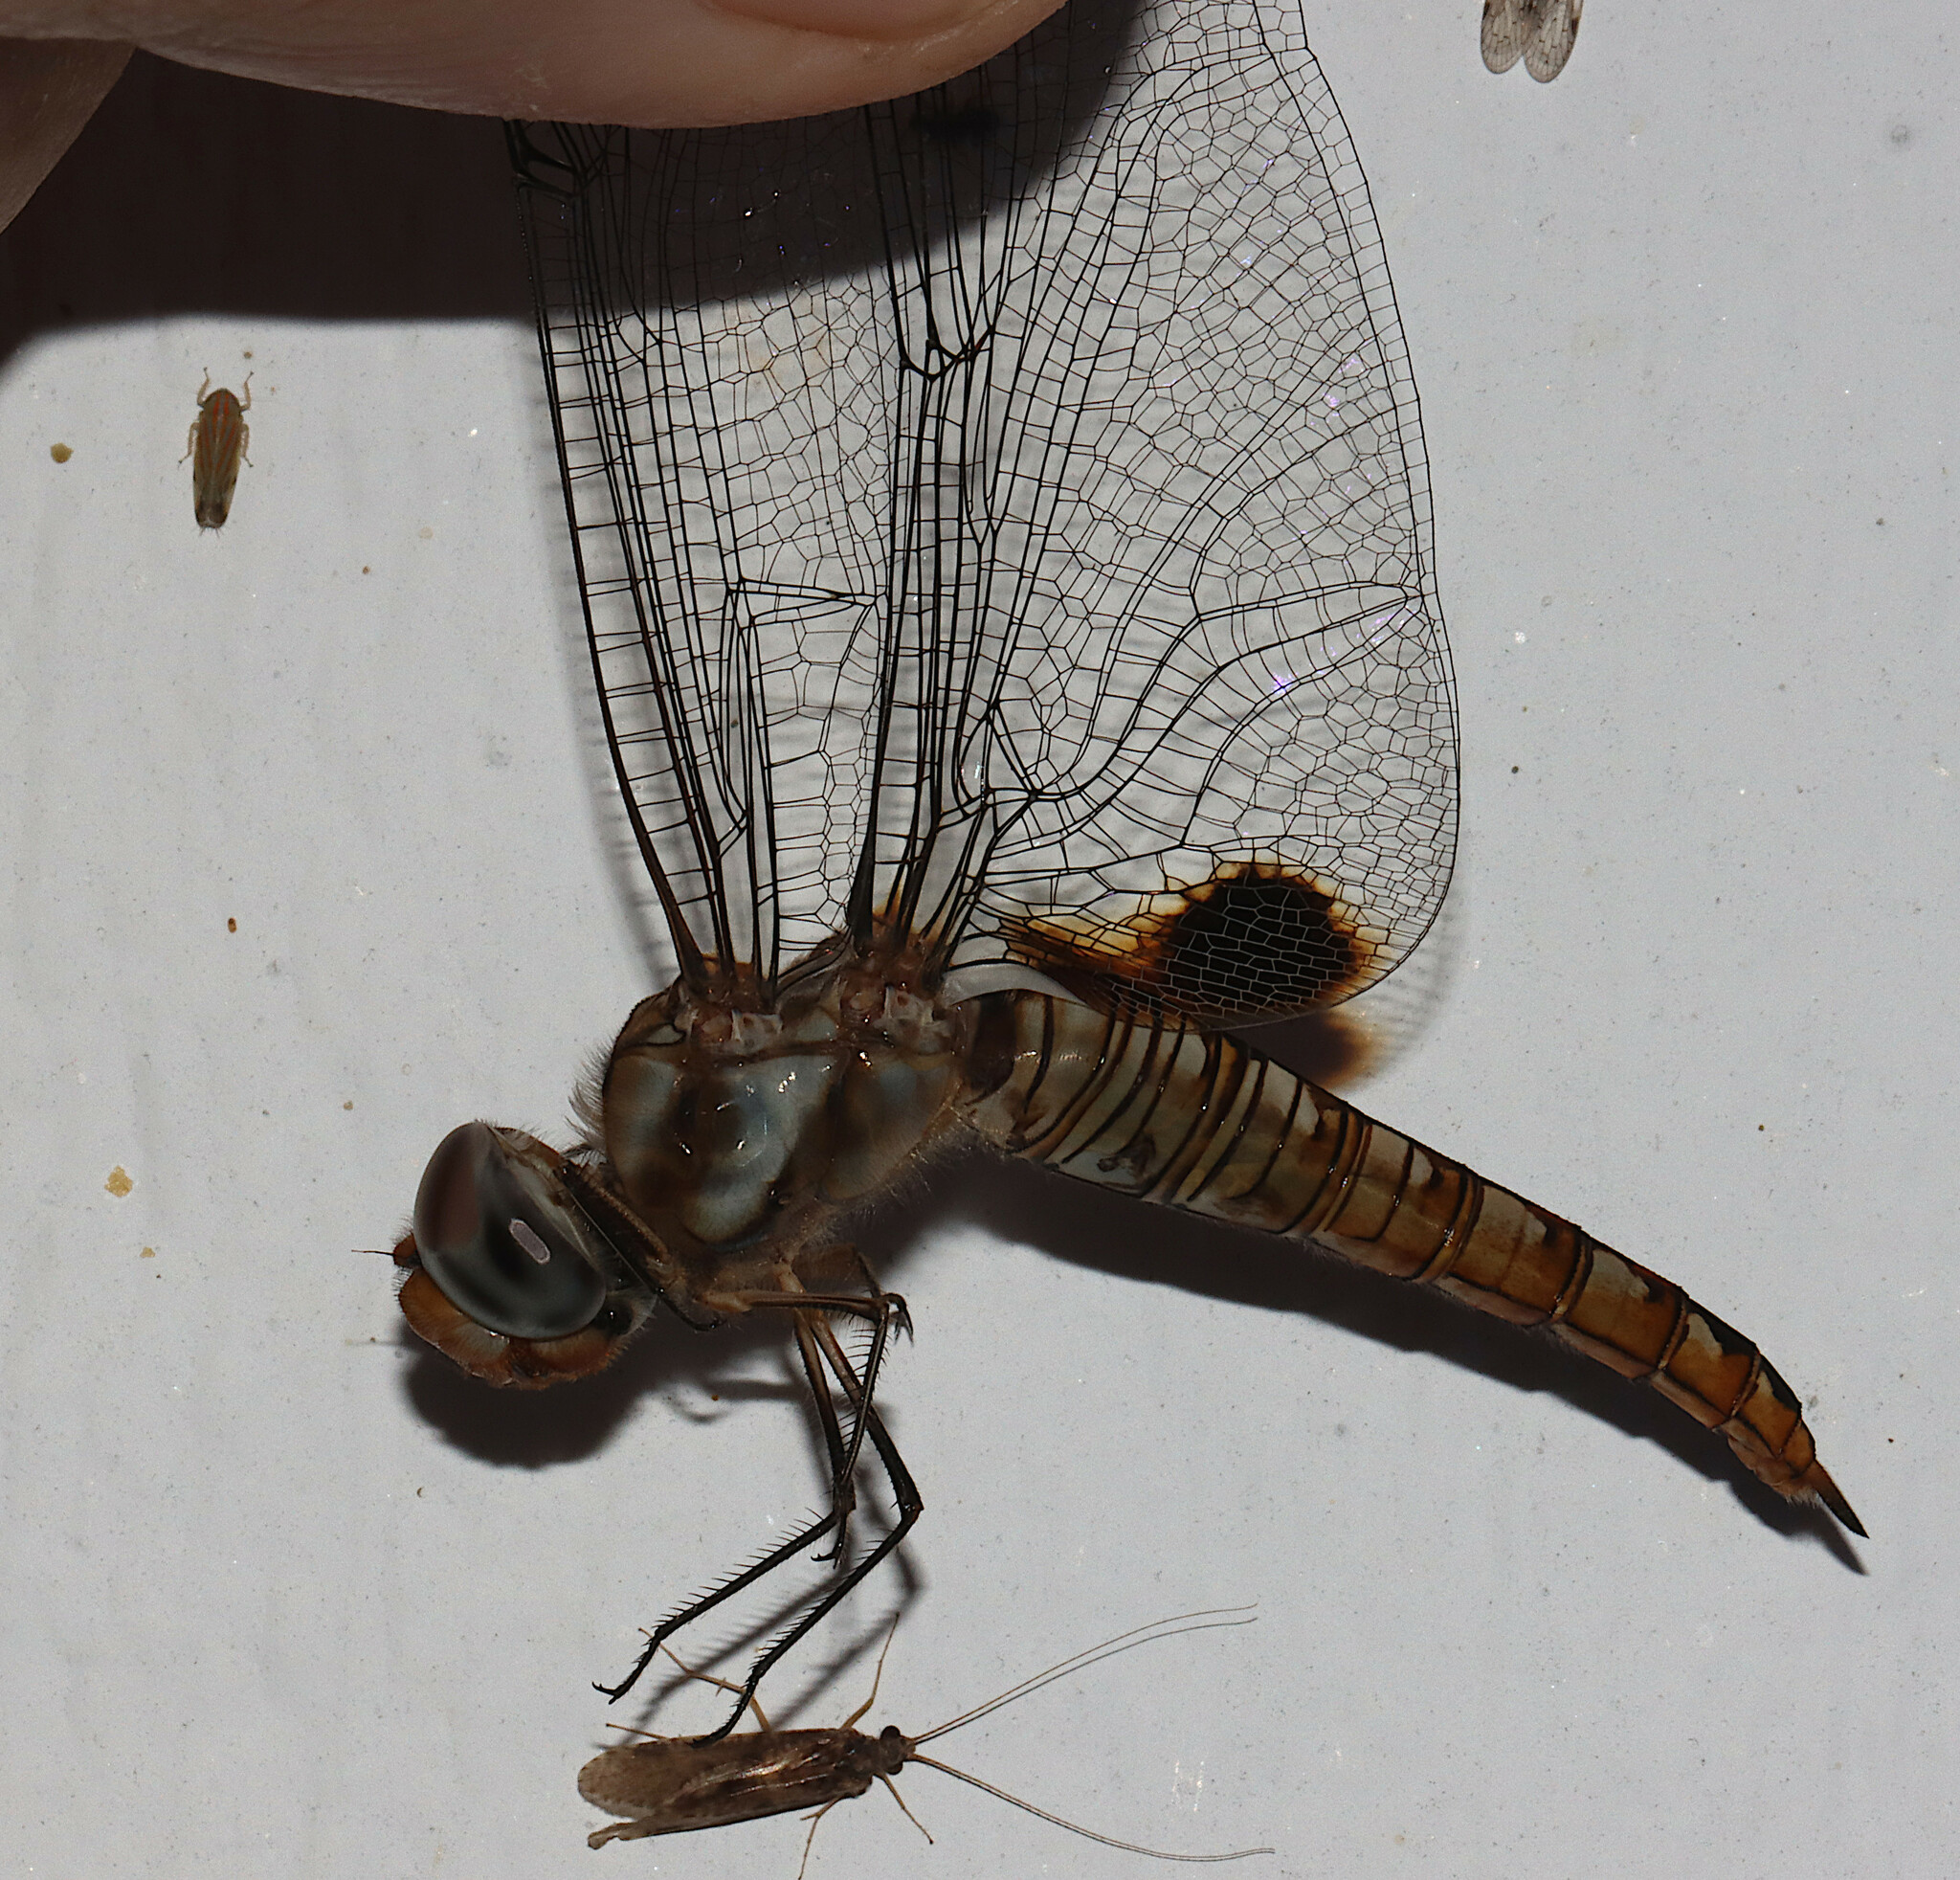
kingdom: Animalia
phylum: Arthropoda
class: Insecta
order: Odonata
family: Libellulidae
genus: Pantala
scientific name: Pantala hymenaea
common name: Spot-winged glider
